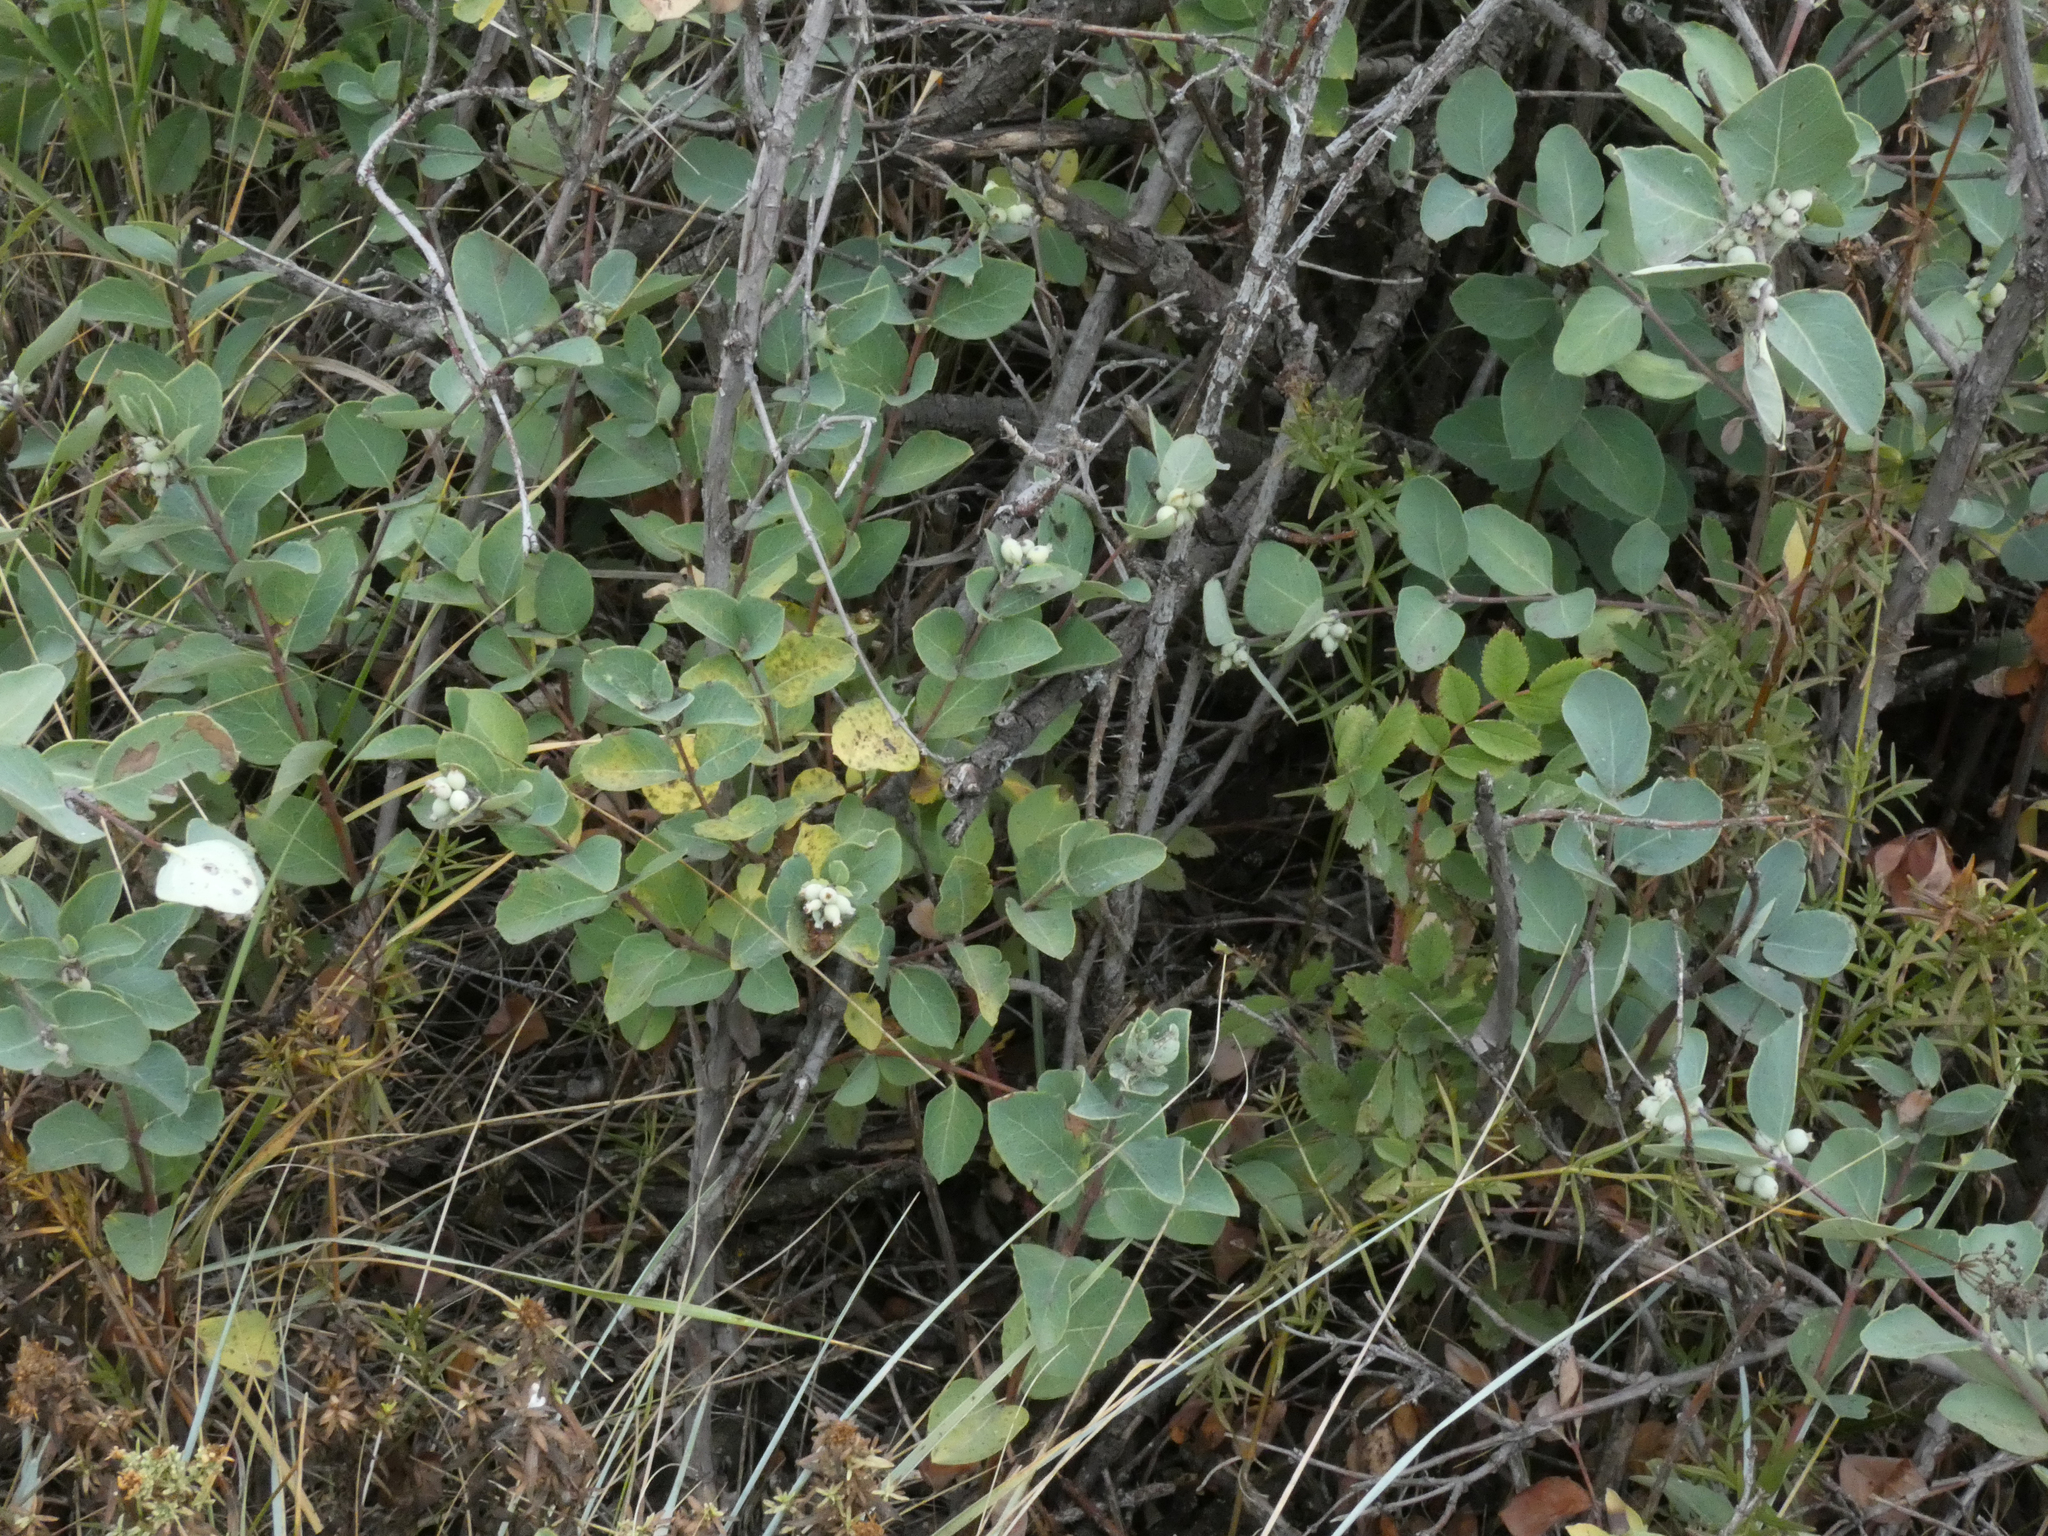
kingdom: Plantae
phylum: Tracheophyta
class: Magnoliopsida
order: Dipsacales
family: Caprifoliaceae
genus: Symphoricarpos
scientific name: Symphoricarpos occidentalis
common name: Wolfberry
